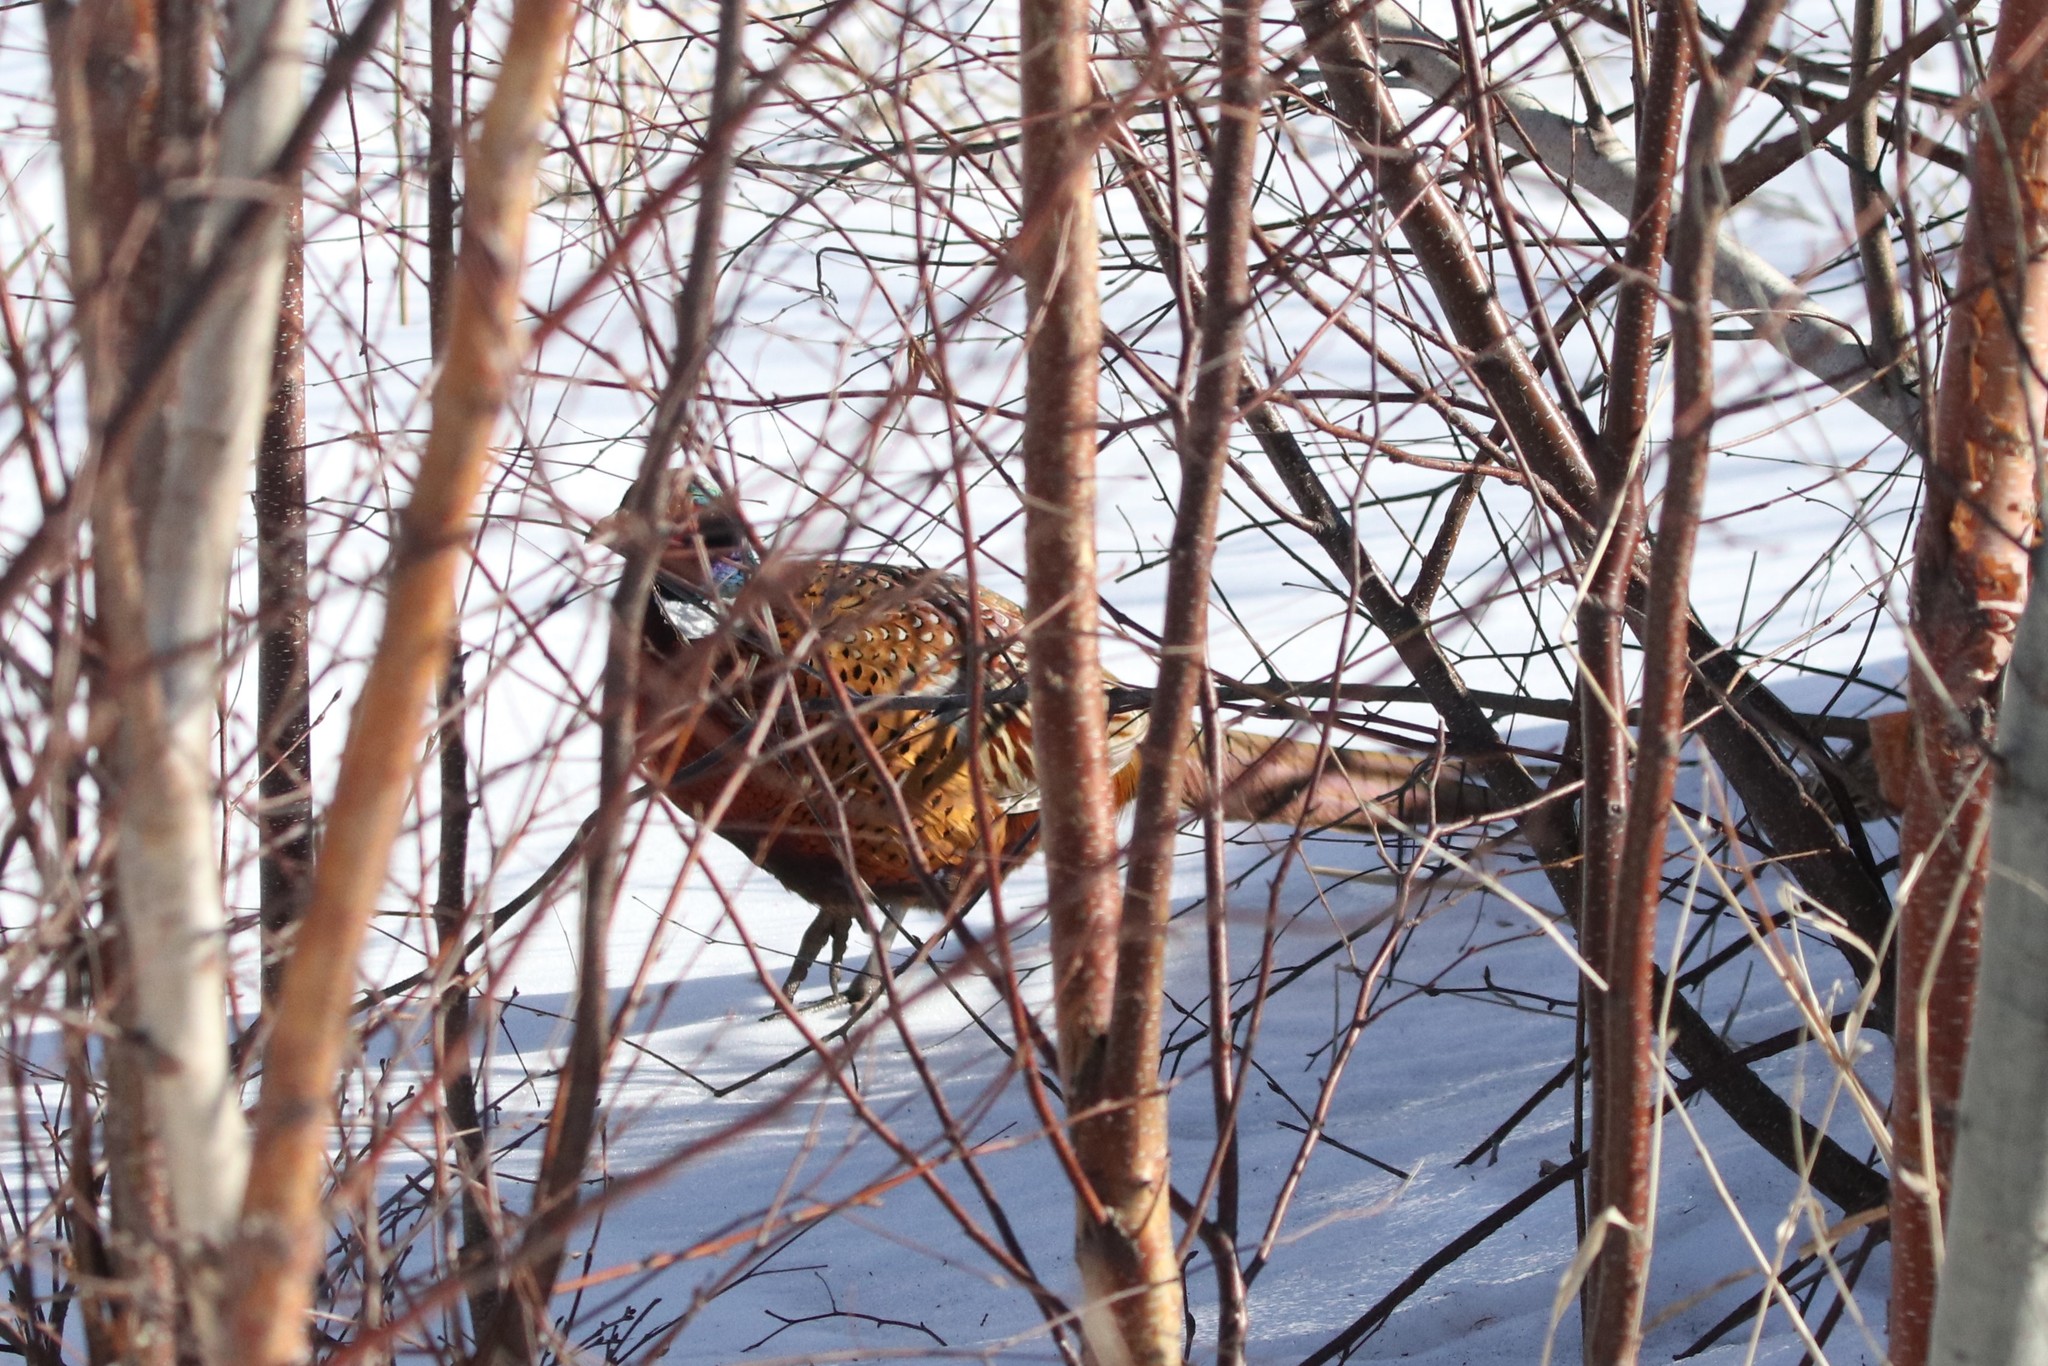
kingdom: Animalia
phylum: Chordata
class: Aves
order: Galliformes
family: Phasianidae
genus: Phasianus
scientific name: Phasianus colchicus
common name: Common pheasant
